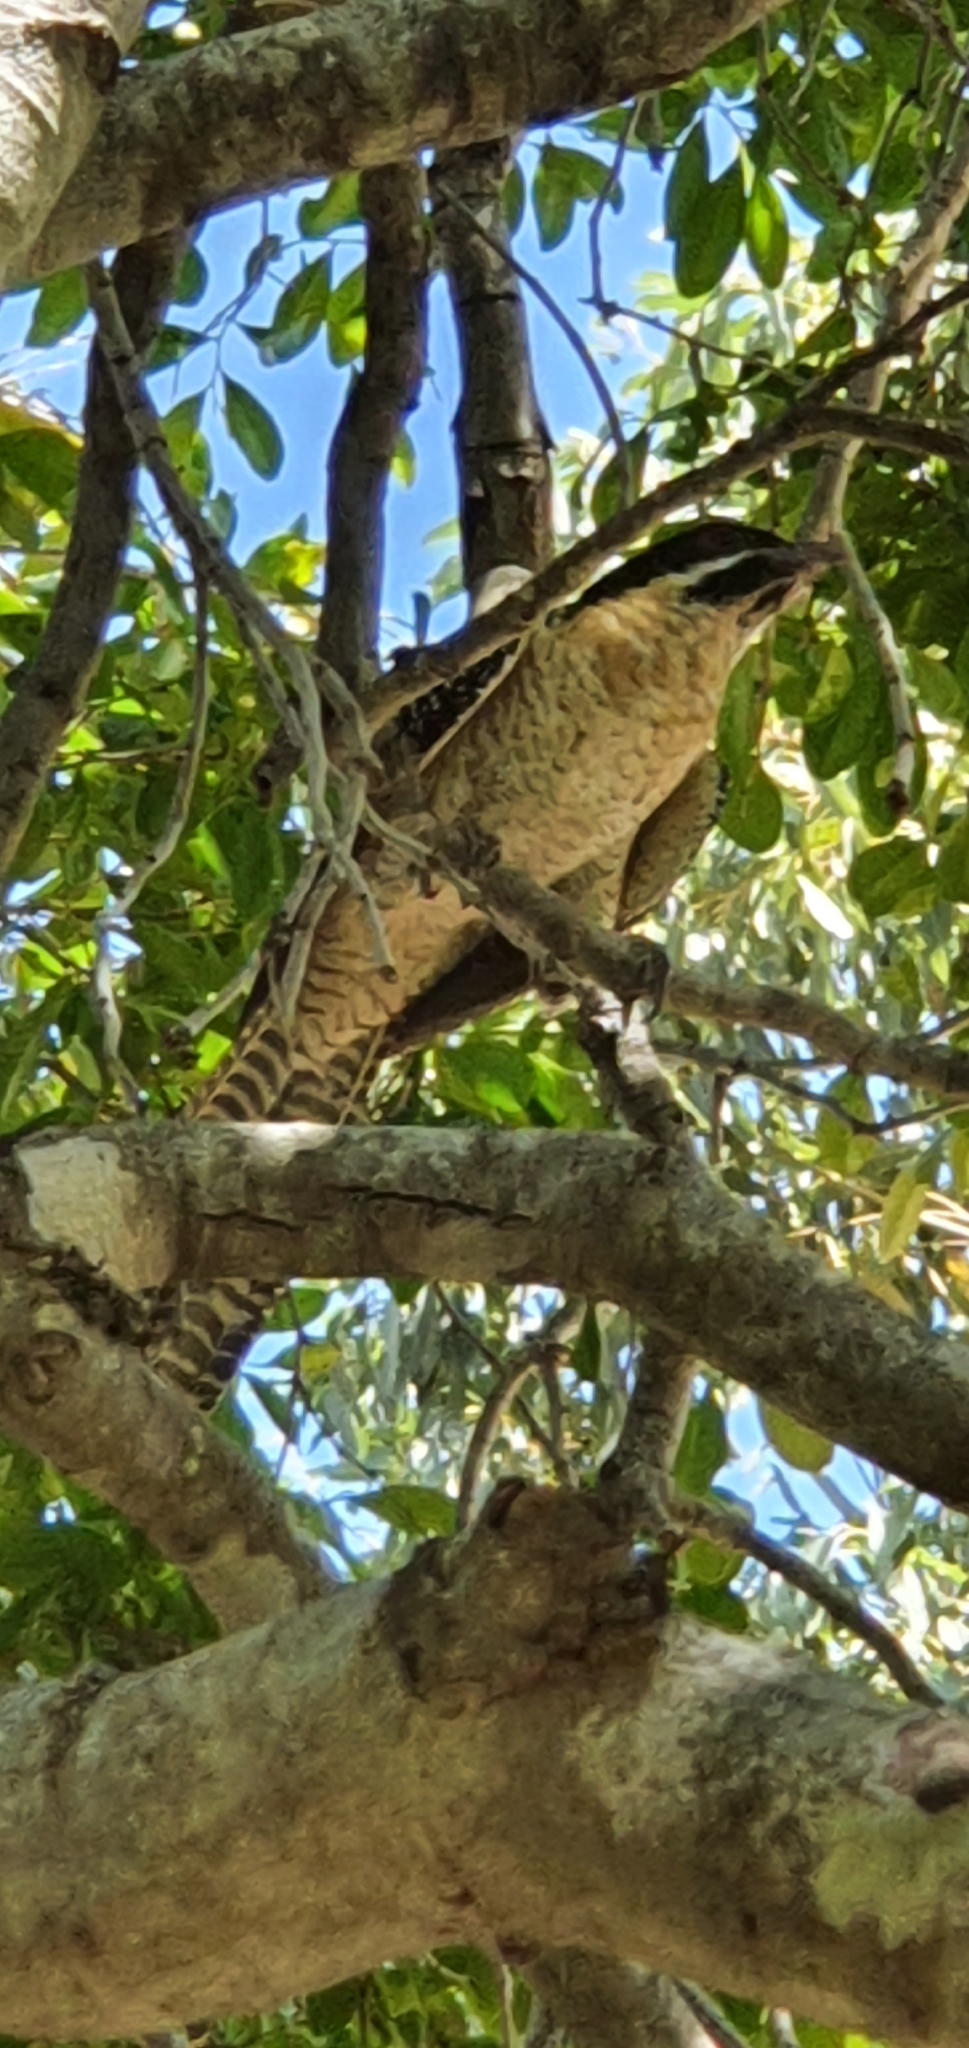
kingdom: Animalia
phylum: Chordata
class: Aves
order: Cuculiformes
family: Cuculidae
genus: Eudynamys
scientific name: Eudynamys orientalis
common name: Pacific koel
